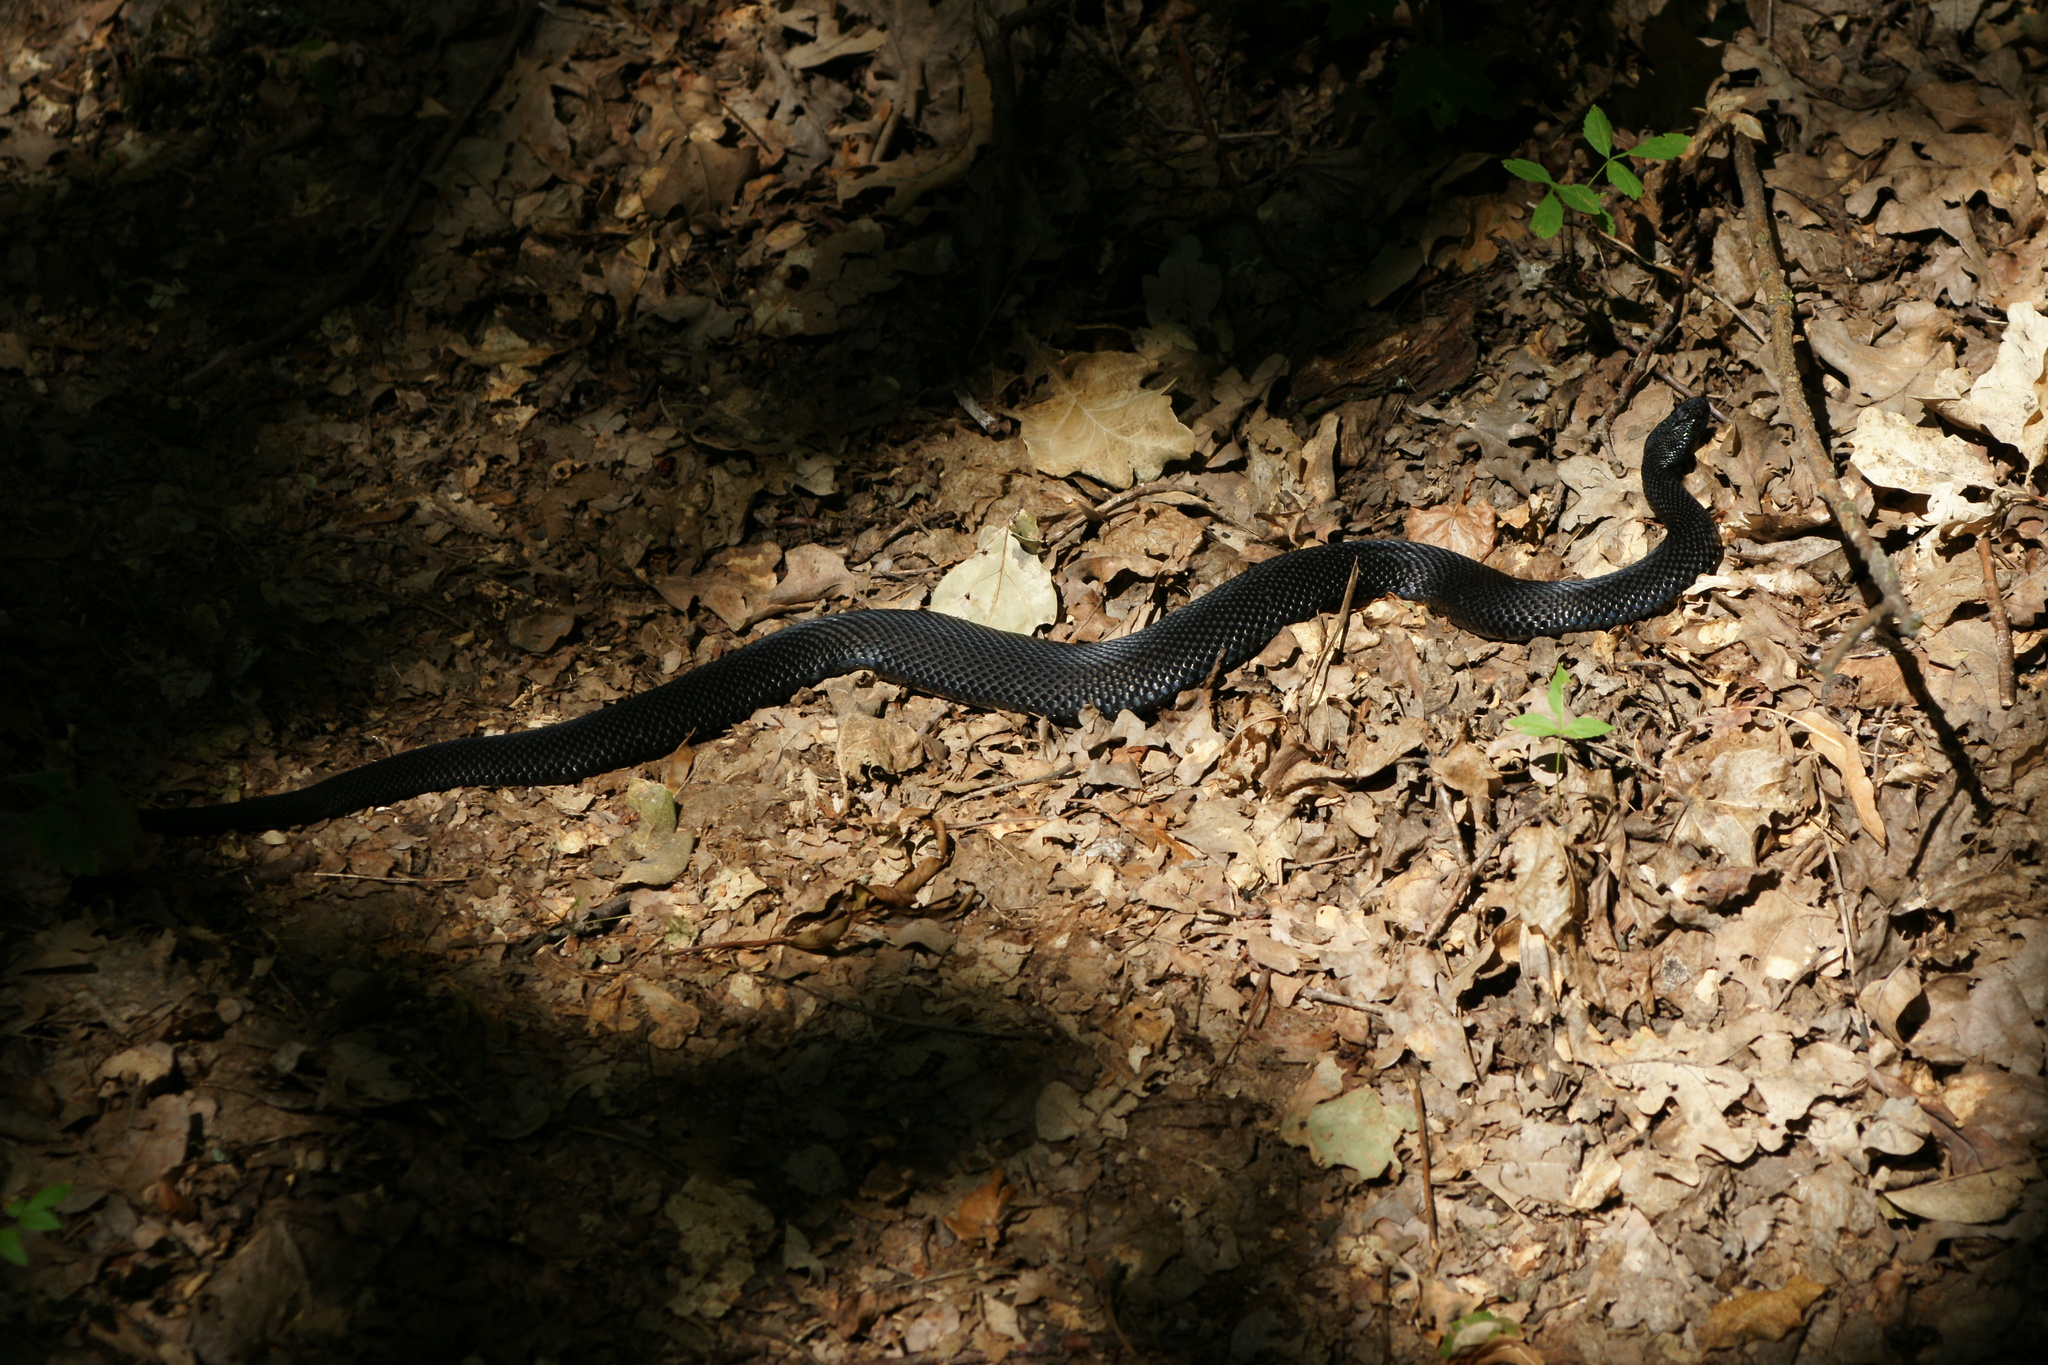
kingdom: Animalia
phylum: Chordata
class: Squamata
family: Viperidae
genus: Vipera
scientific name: Vipera nikolskii
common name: Adder
